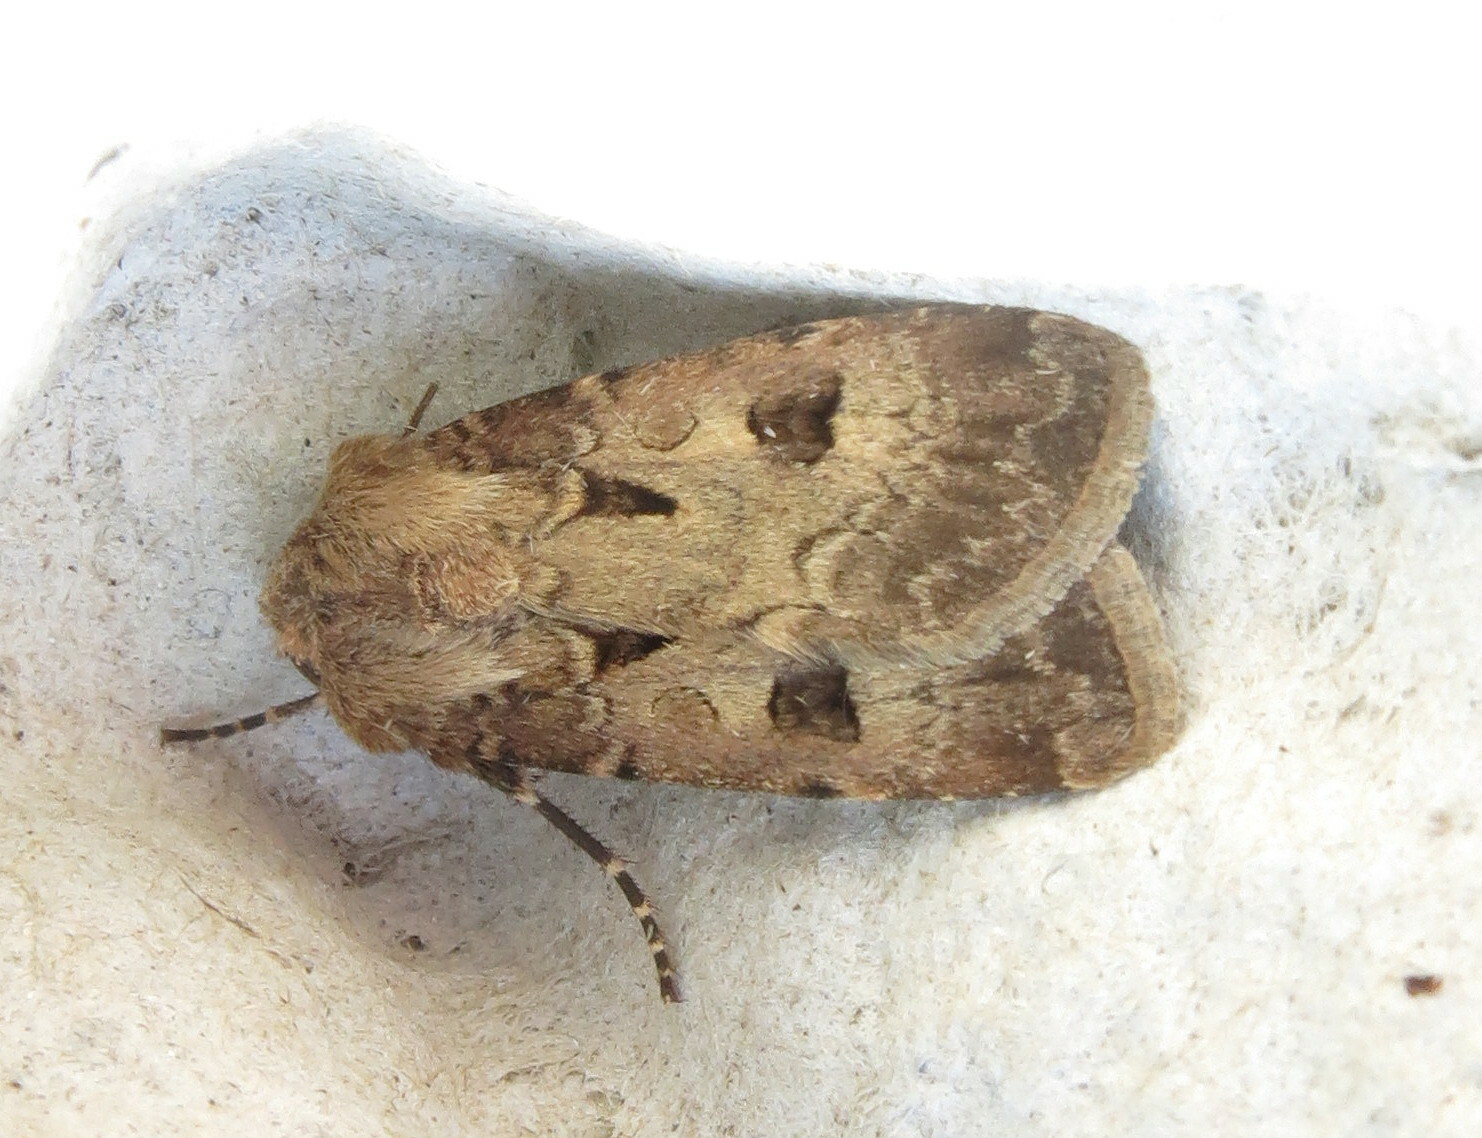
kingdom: Animalia
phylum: Arthropoda
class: Insecta
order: Lepidoptera
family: Noctuidae
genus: Agrotis
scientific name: Agrotis exclamationis
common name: Heart and dart
